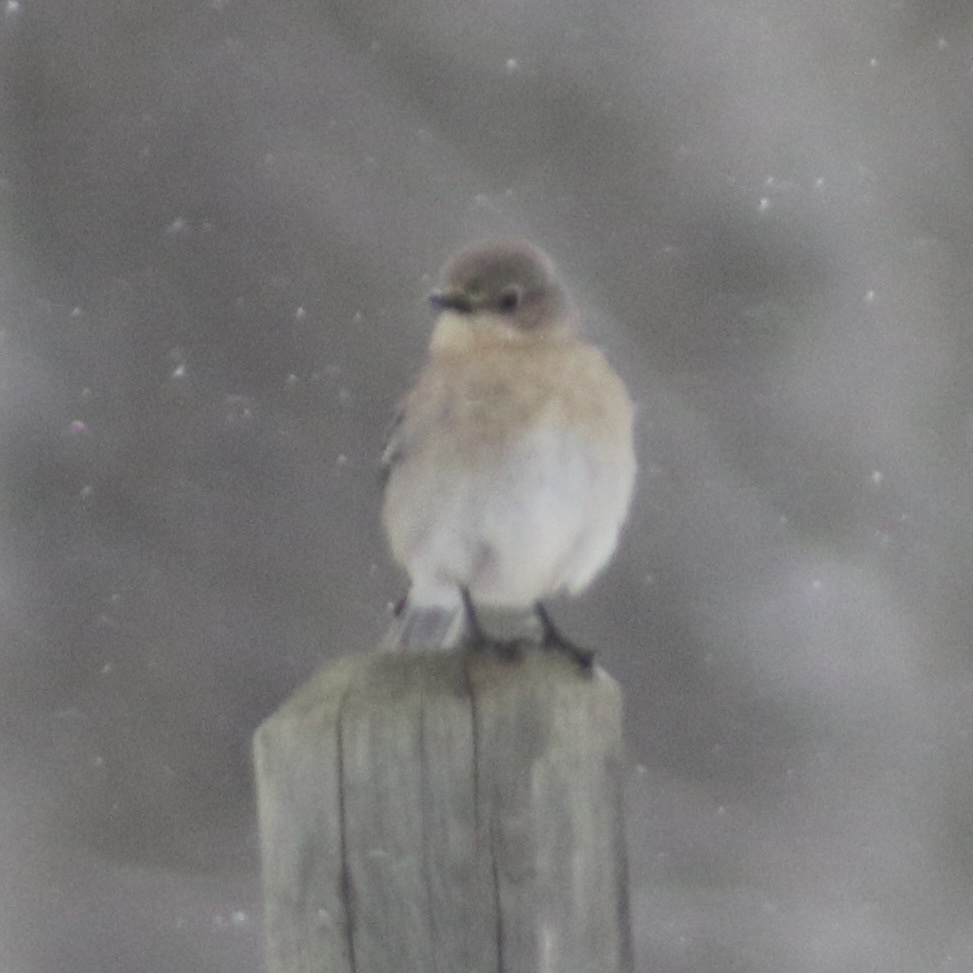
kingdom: Animalia
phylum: Chordata
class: Aves
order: Passeriformes
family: Turdidae
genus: Sialia
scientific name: Sialia currucoides
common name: Mountain bluebird
